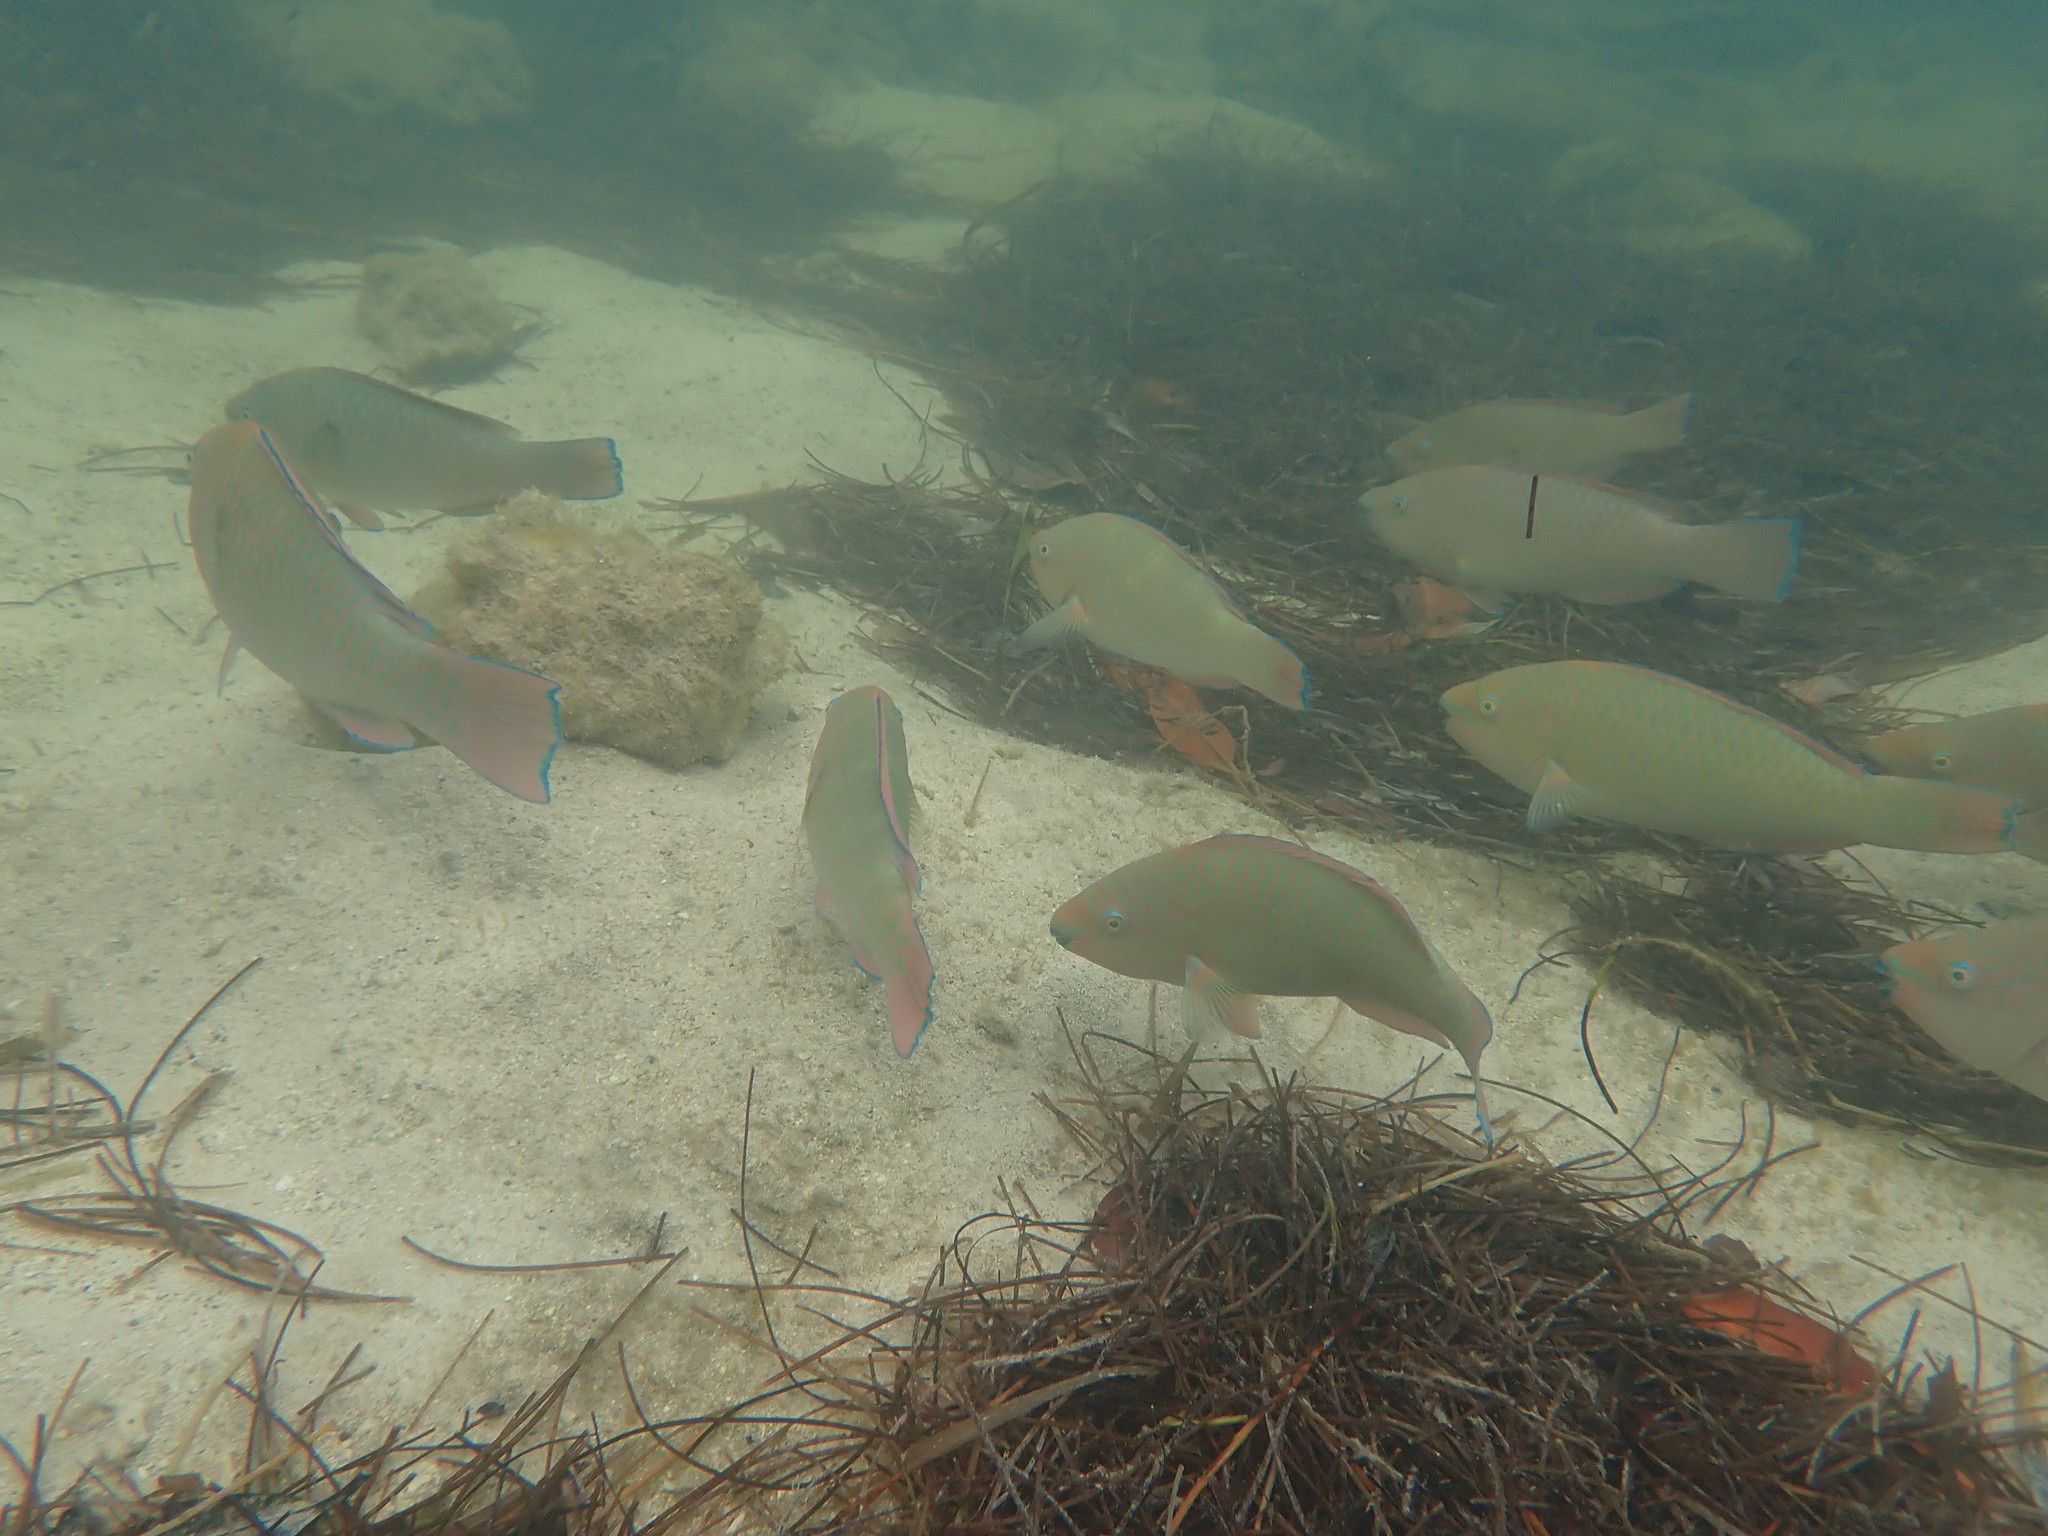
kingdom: Animalia
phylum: Chordata
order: Perciformes
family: Scaridae
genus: Scarus
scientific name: Scarus guacamaia
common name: Rainbow parrotfish
